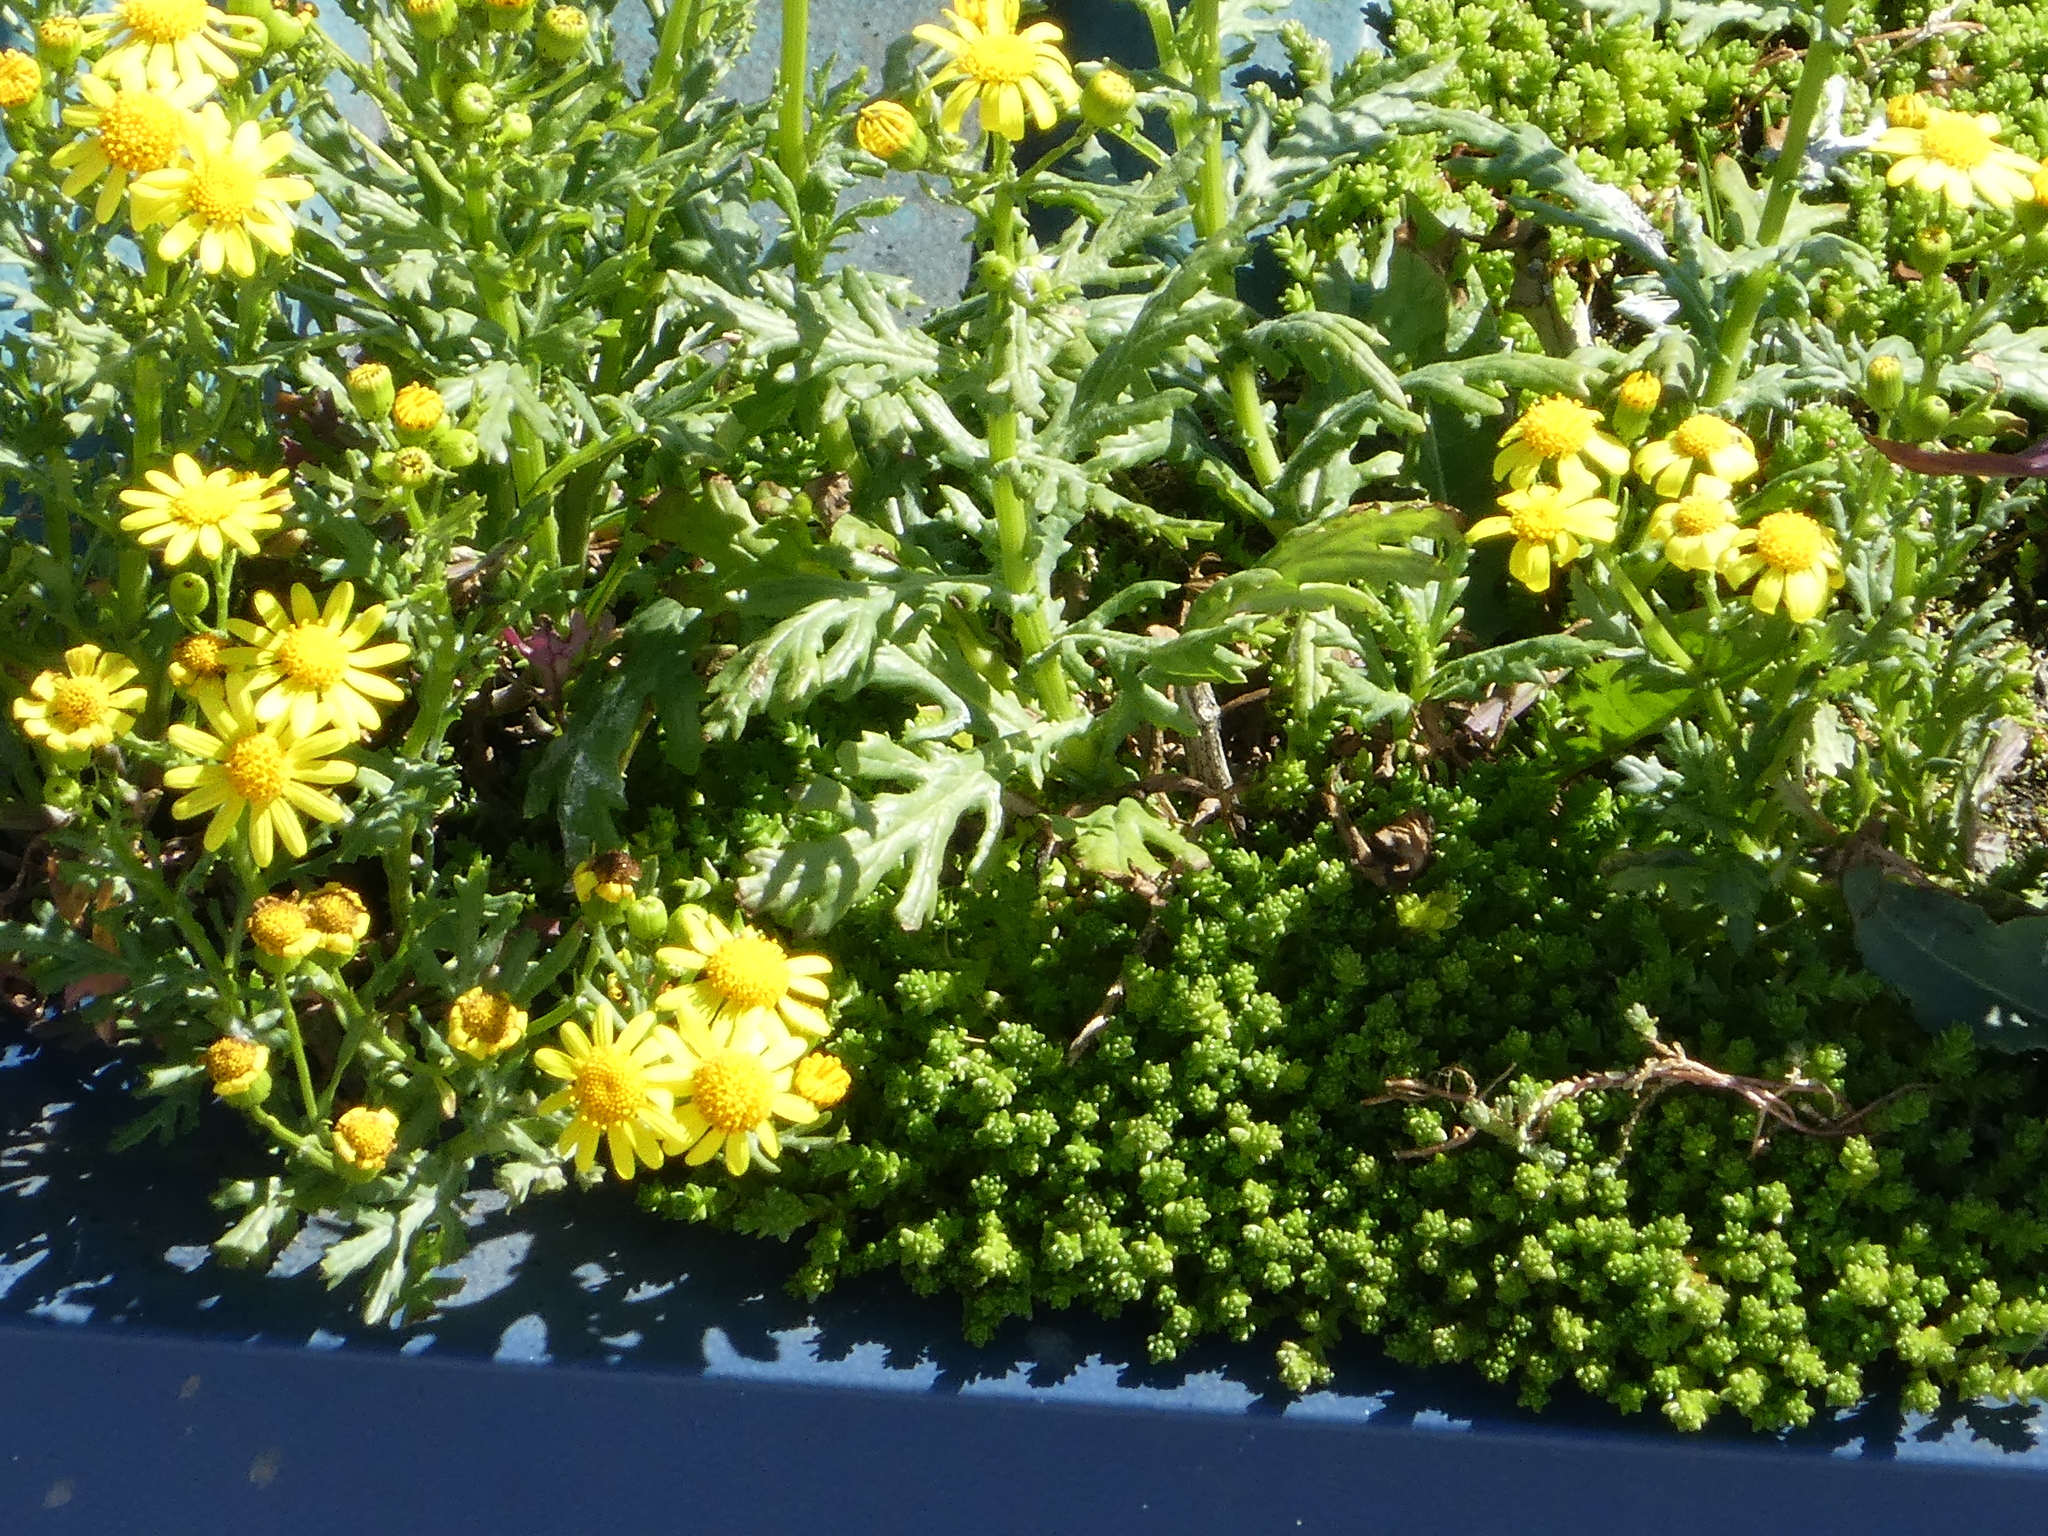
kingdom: Plantae
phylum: Tracheophyta
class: Magnoliopsida
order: Asterales
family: Asteraceae
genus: Senecio
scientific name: Senecio squalidus
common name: Oxford ragwort
